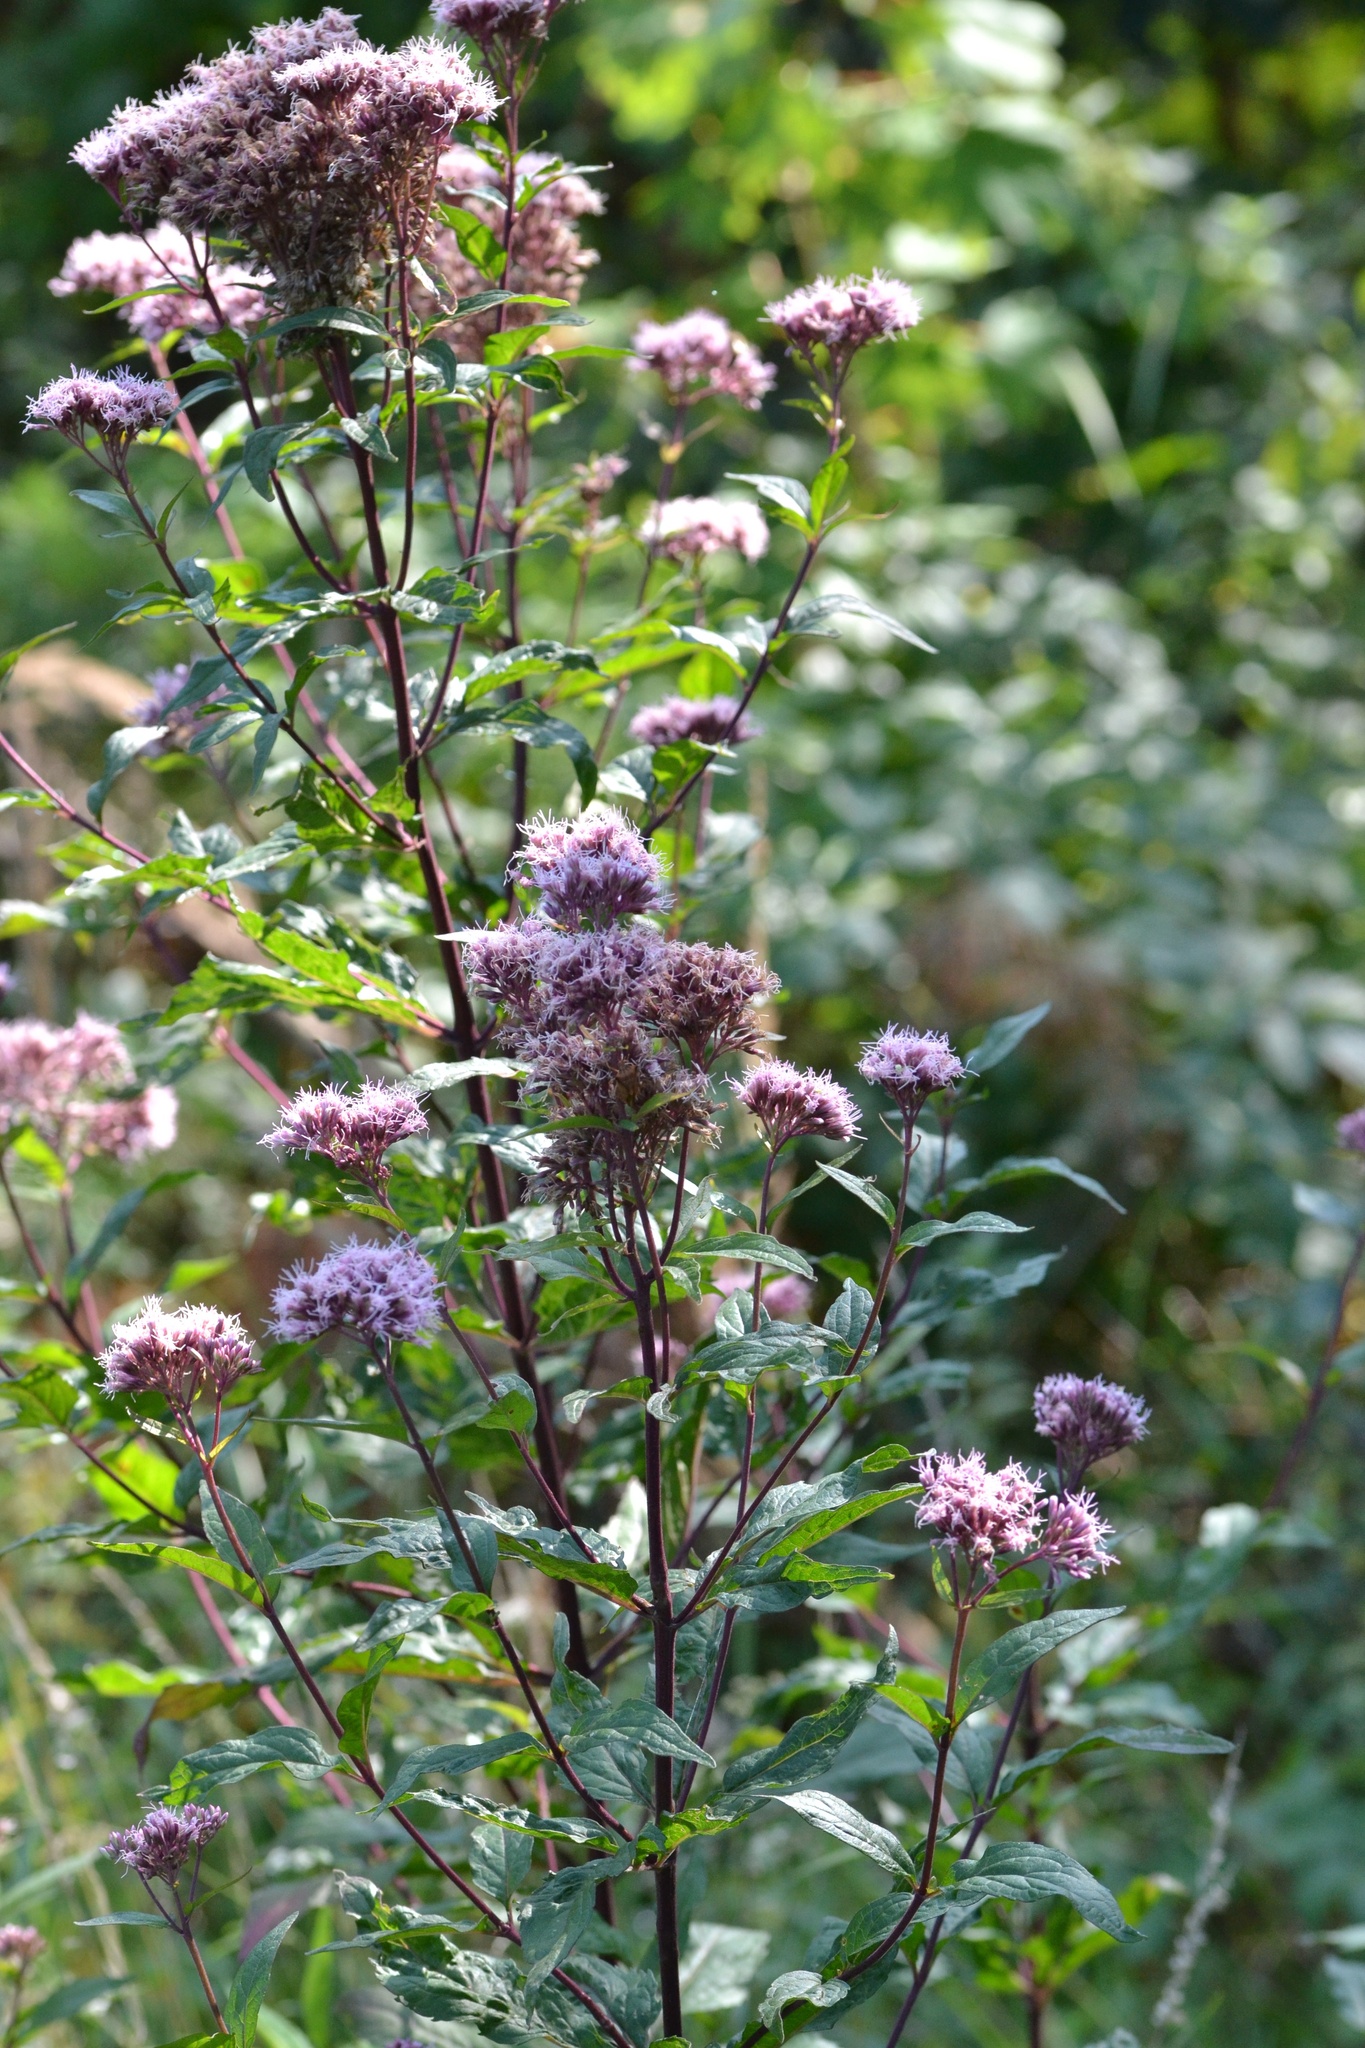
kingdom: Plantae
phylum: Tracheophyta
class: Magnoliopsida
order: Asterales
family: Asteraceae
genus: Eupatorium
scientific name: Eupatorium cannabinum
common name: Hemp-agrimony
